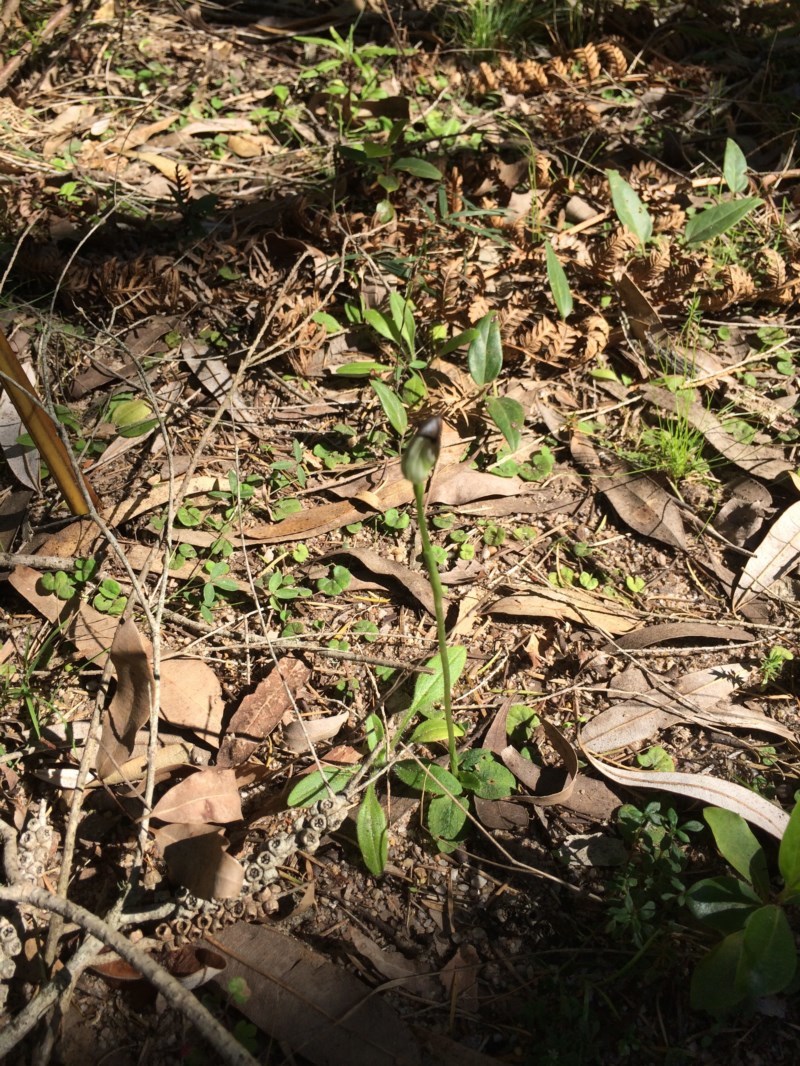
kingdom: Plantae
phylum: Tracheophyta
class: Liliopsida
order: Asparagales
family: Orchidaceae
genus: Pterostylis
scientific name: Pterostylis pedunculata
